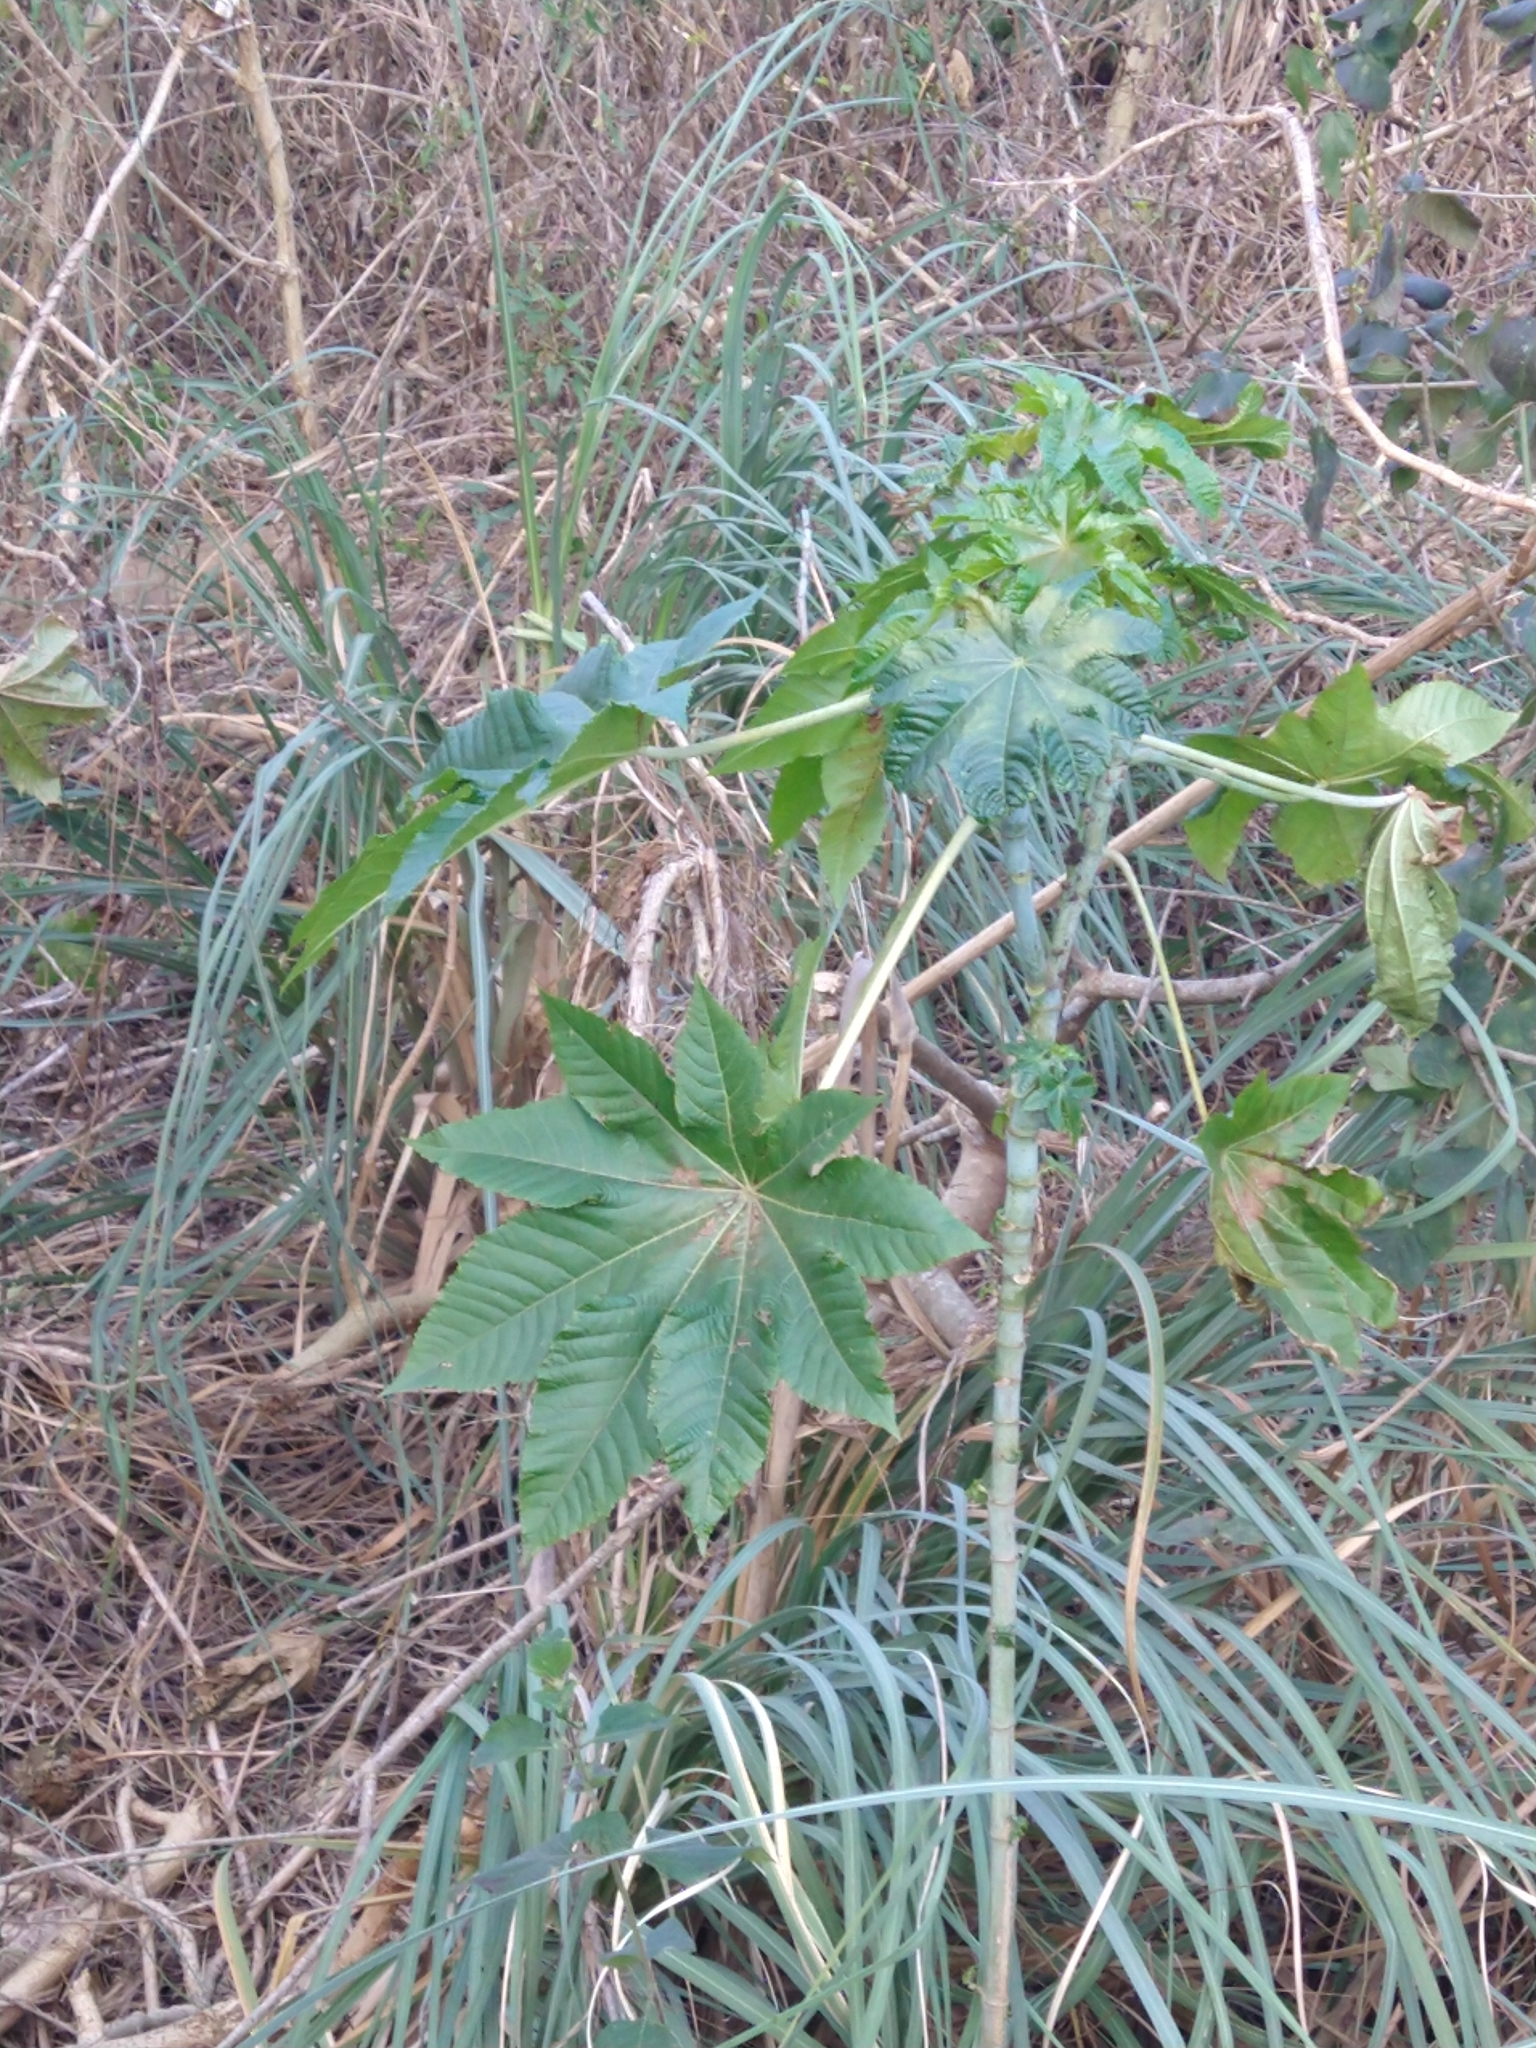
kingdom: Plantae
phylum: Tracheophyta
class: Magnoliopsida
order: Malpighiales
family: Euphorbiaceae
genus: Ricinus
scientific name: Ricinus communis
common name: Castor-oil-plant
